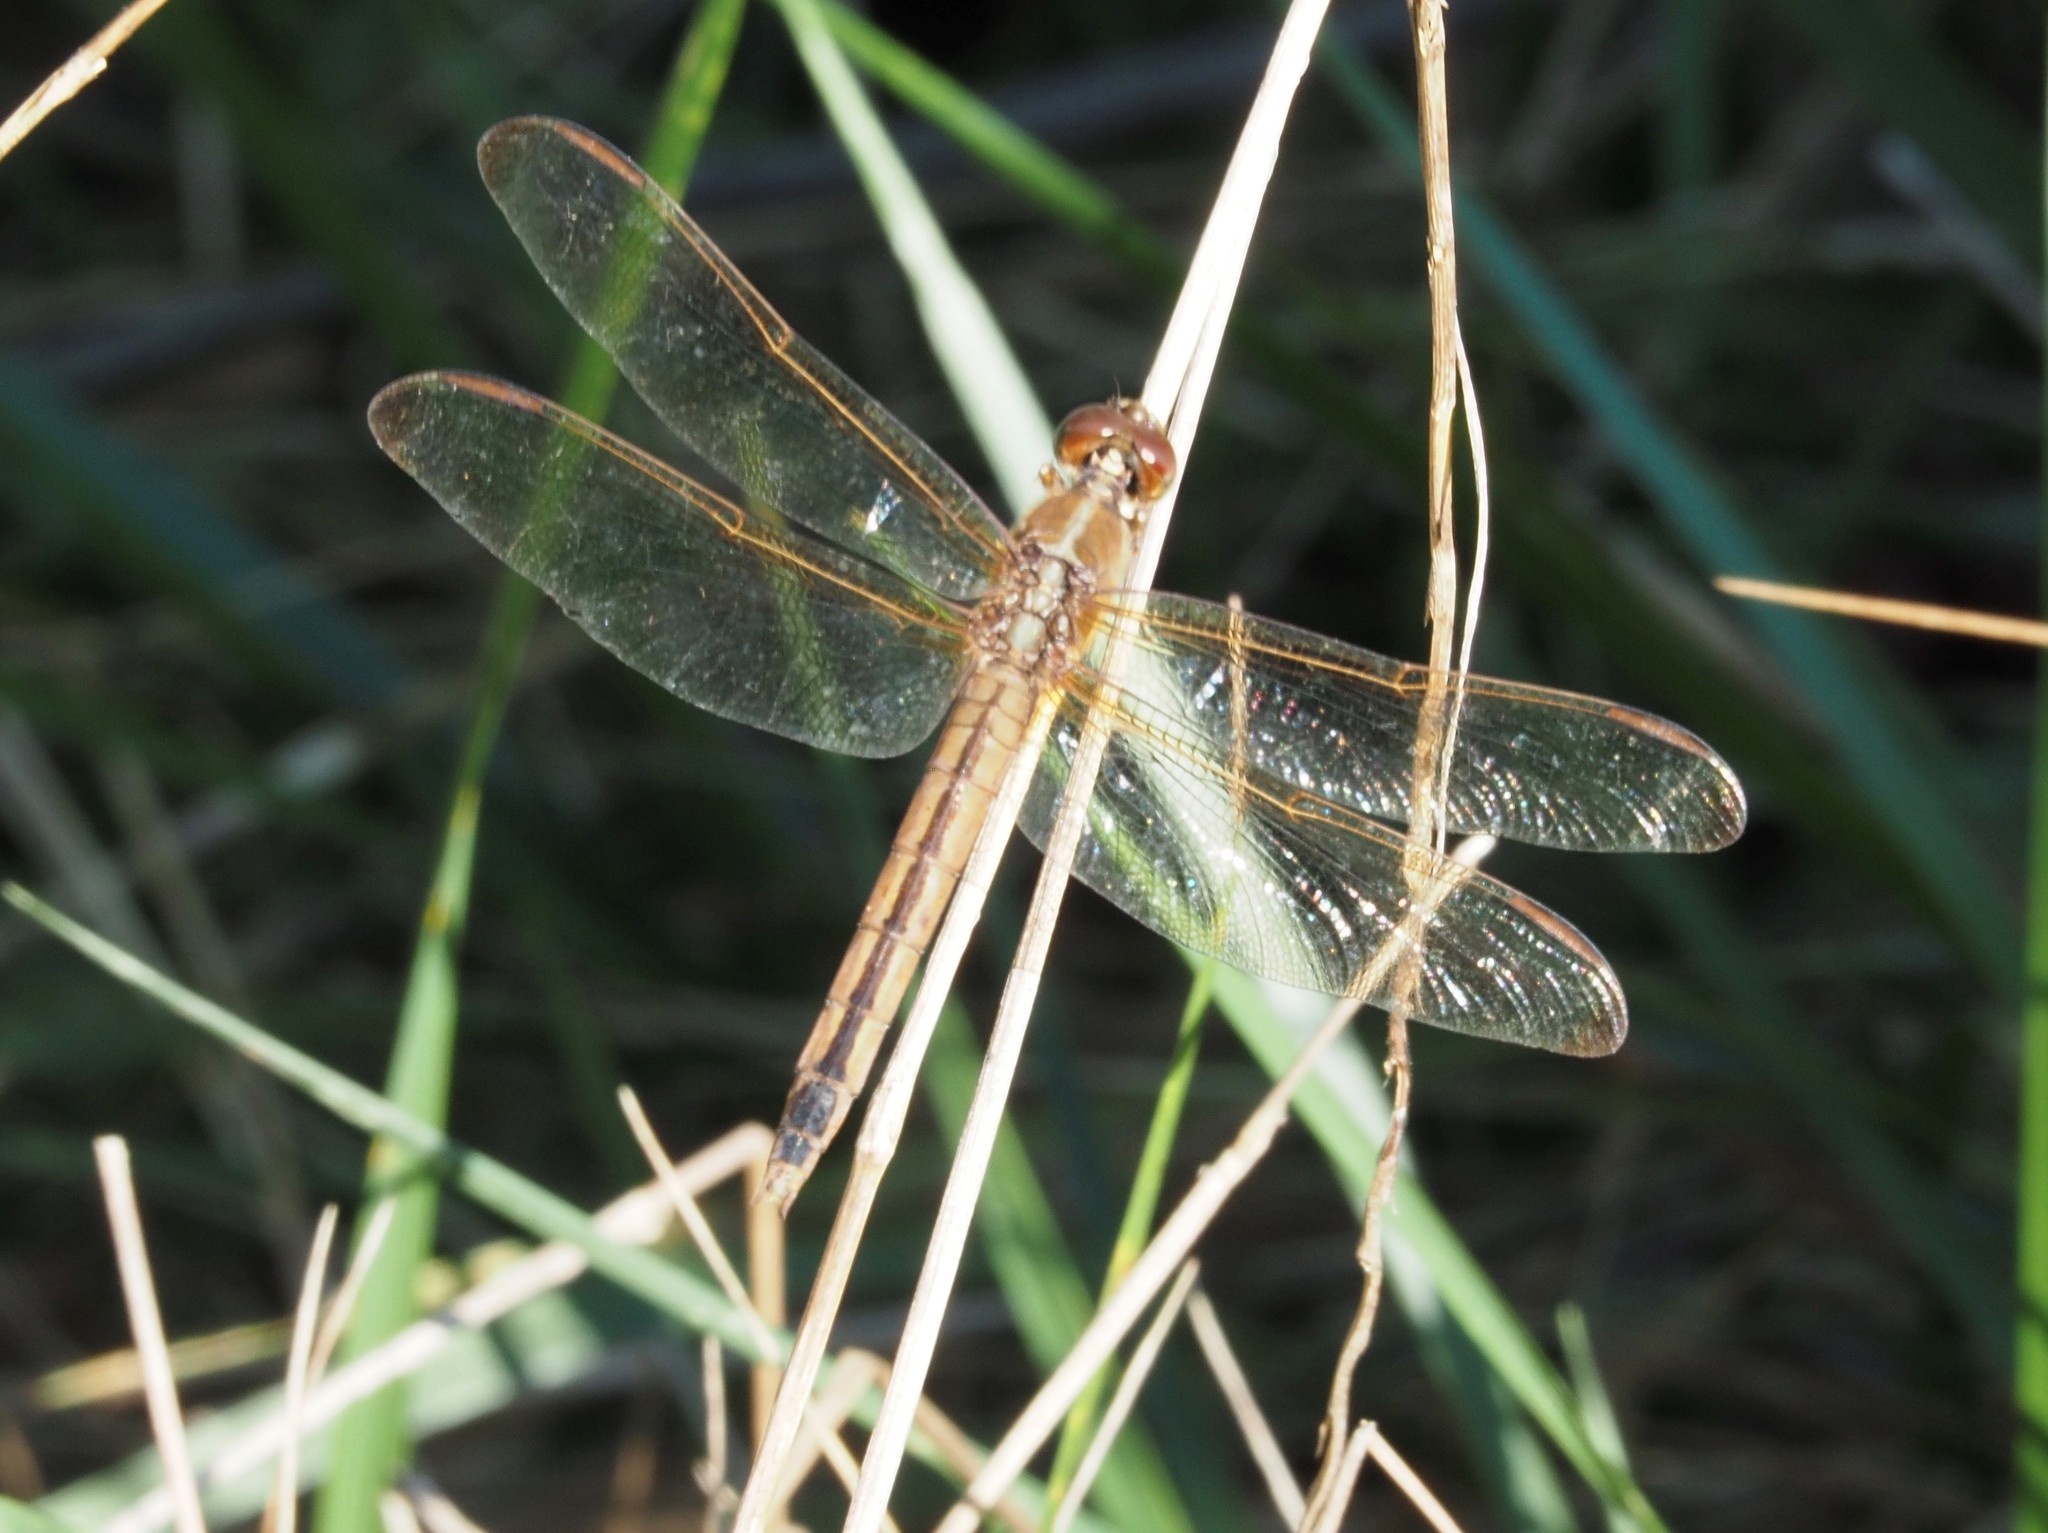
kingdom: Animalia
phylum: Arthropoda
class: Insecta
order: Odonata
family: Libellulidae
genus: Libellula
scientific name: Libellula needhami
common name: Needham's skimmer
